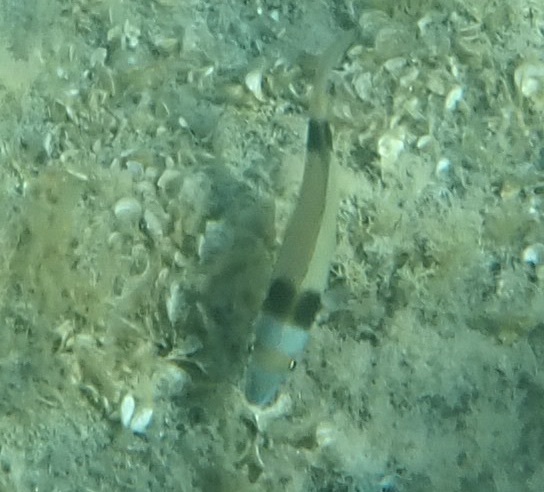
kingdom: Animalia
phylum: Chordata
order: Perciformes
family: Sparidae
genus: Diplodus
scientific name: Diplodus vulgaris
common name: Common two-banded seabream
